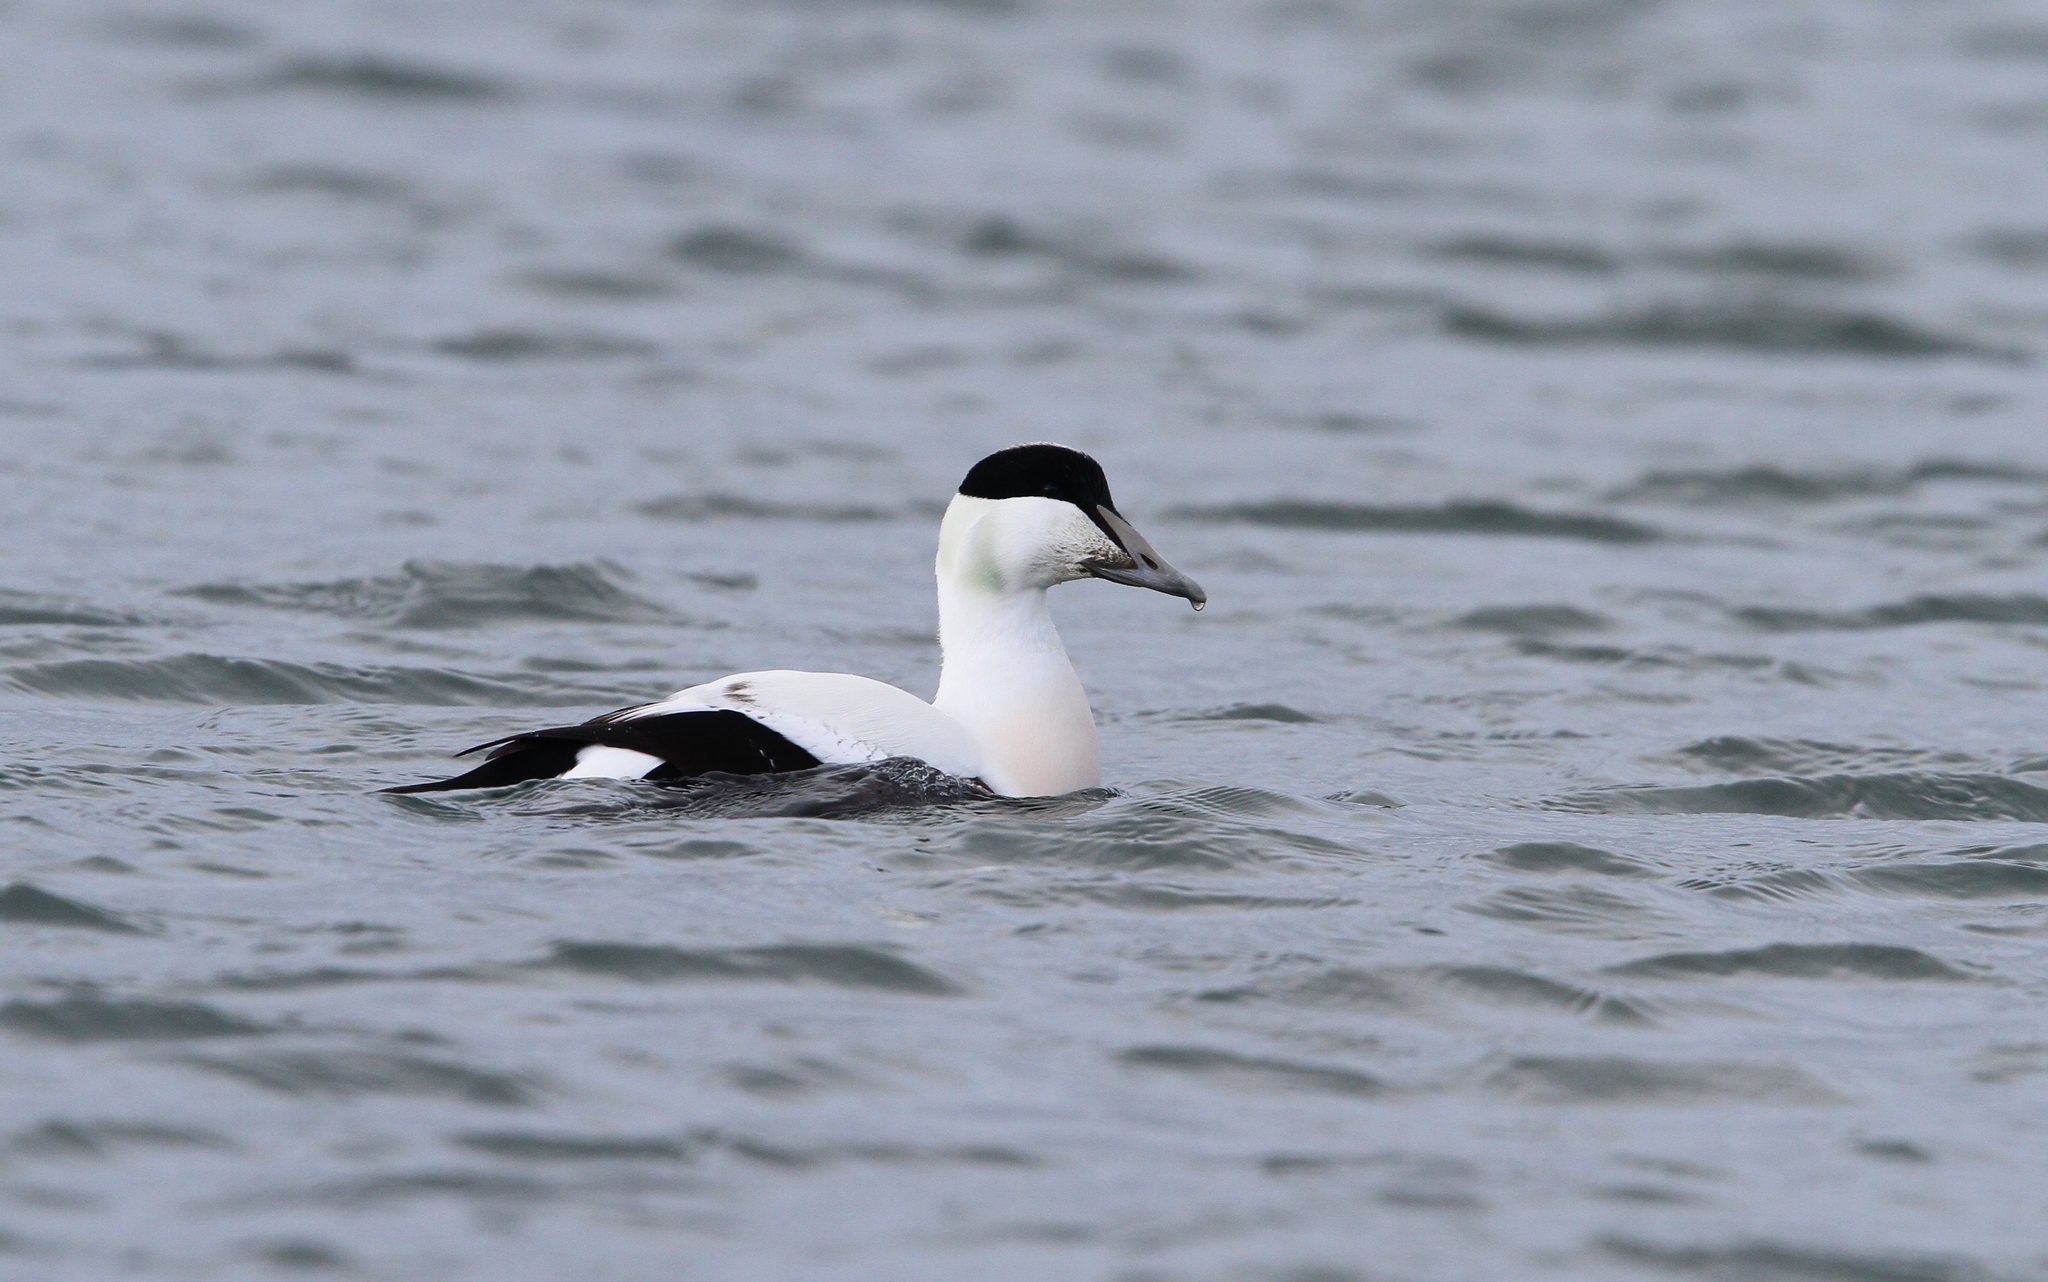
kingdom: Animalia
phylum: Chordata
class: Aves
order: Anseriformes
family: Anatidae
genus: Somateria
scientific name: Somateria mollissima
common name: Common eider
